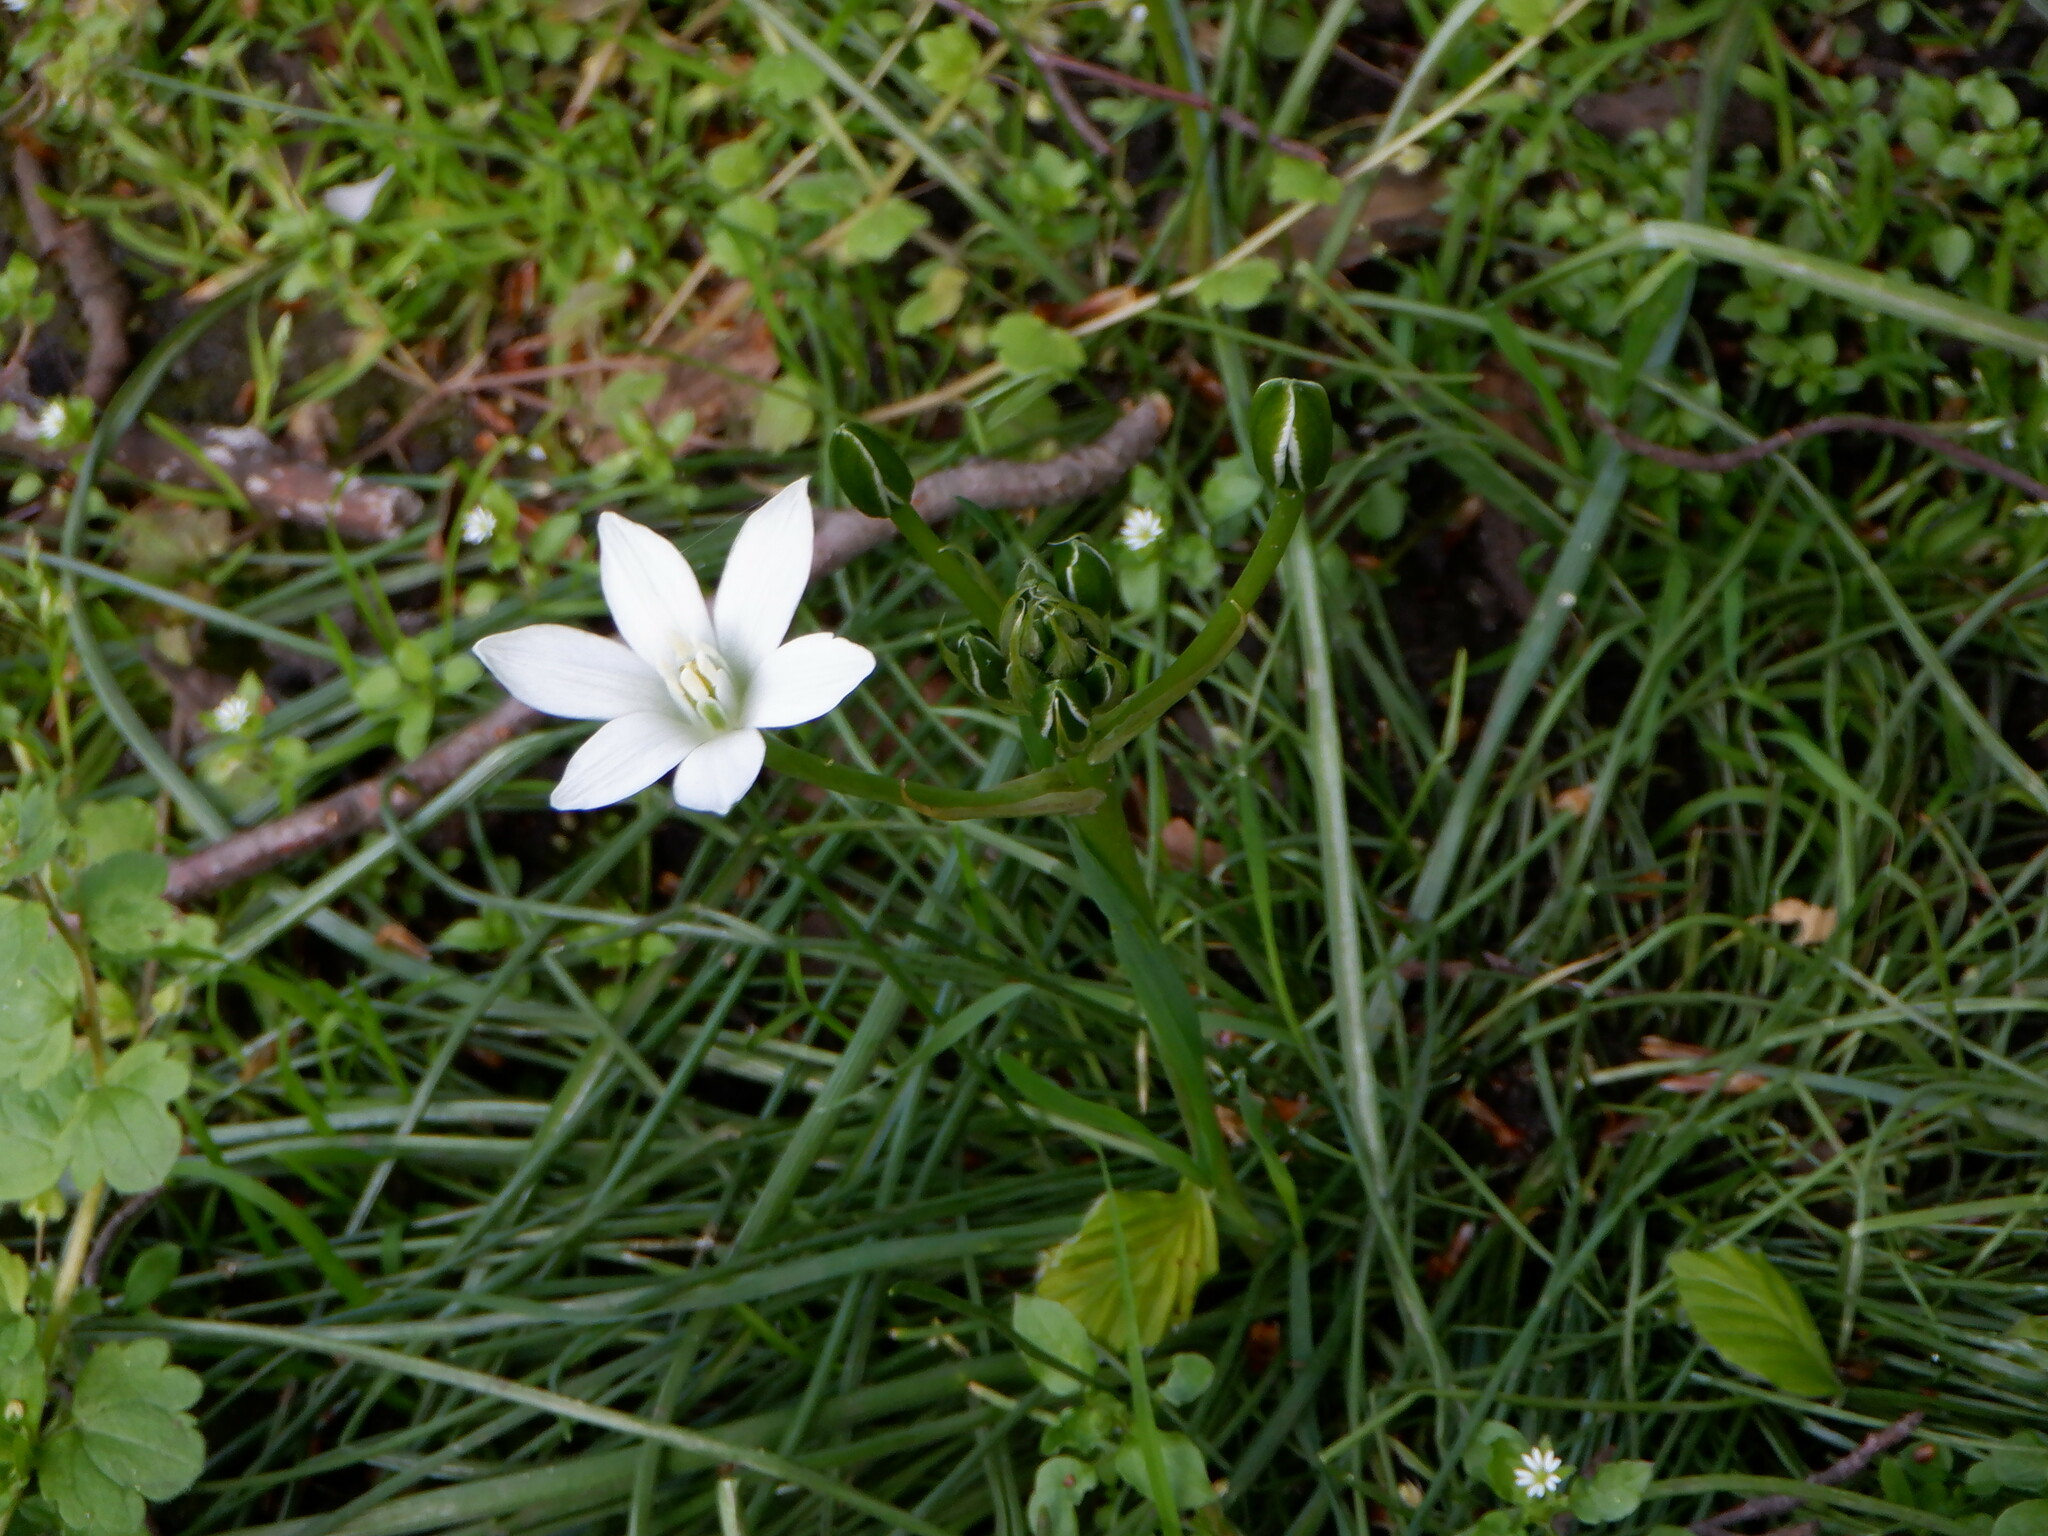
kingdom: Plantae
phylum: Tracheophyta
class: Liliopsida
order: Asparagales
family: Asparagaceae
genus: Ornithogalum
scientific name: Ornithogalum umbellatum
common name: Garden star-of-bethlehem
